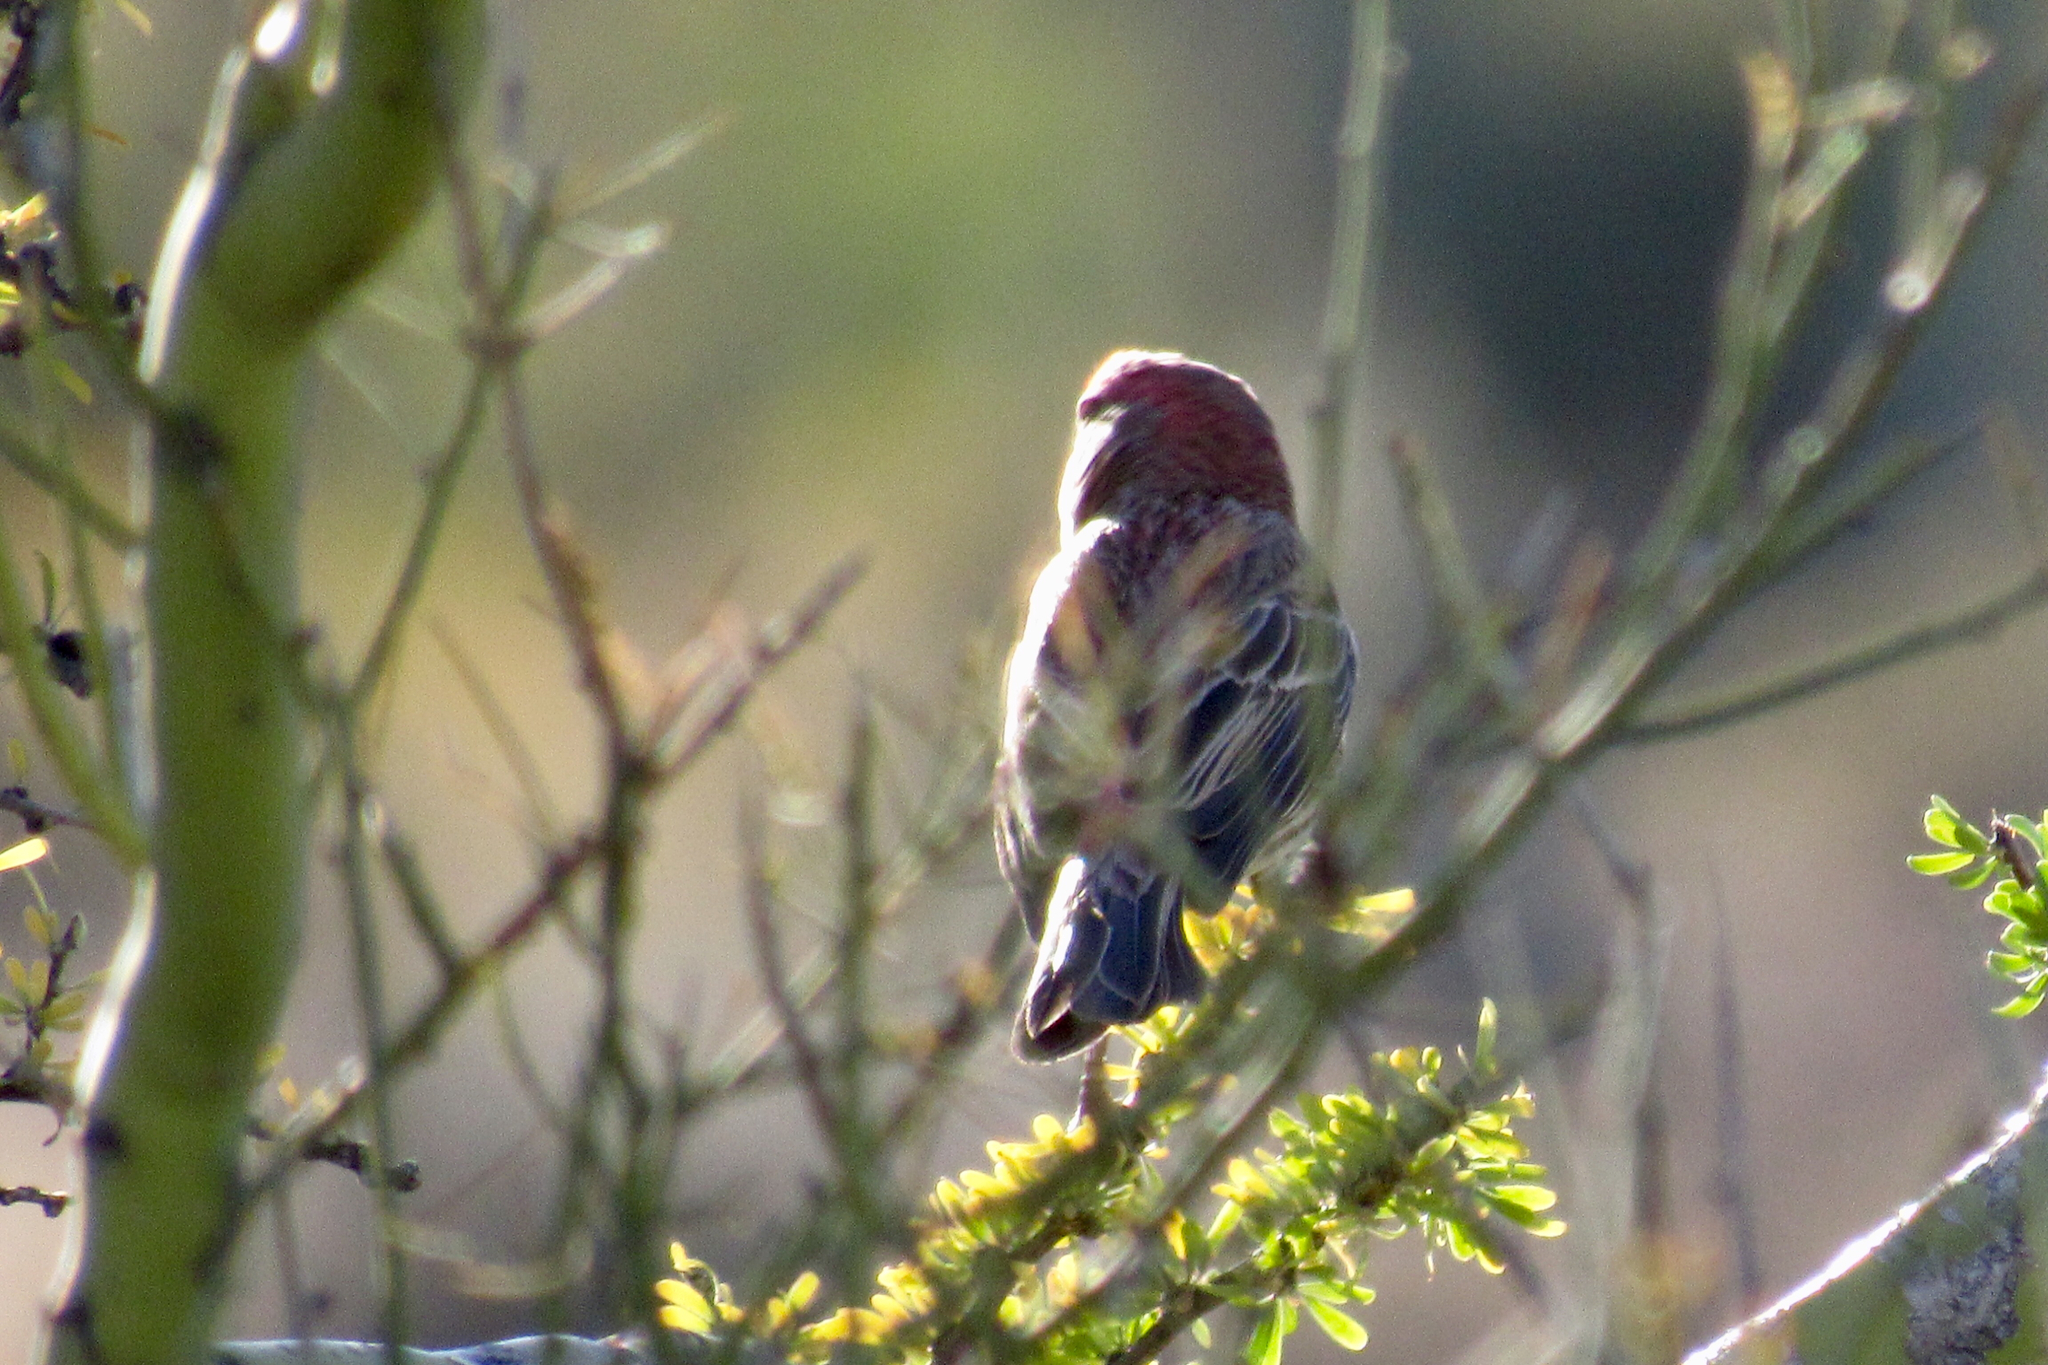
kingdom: Animalia
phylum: Chordata
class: Aves
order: Passeriformes
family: Fringillidae
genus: Haemorhous
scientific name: Haemorhous mexicanus
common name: House finch
